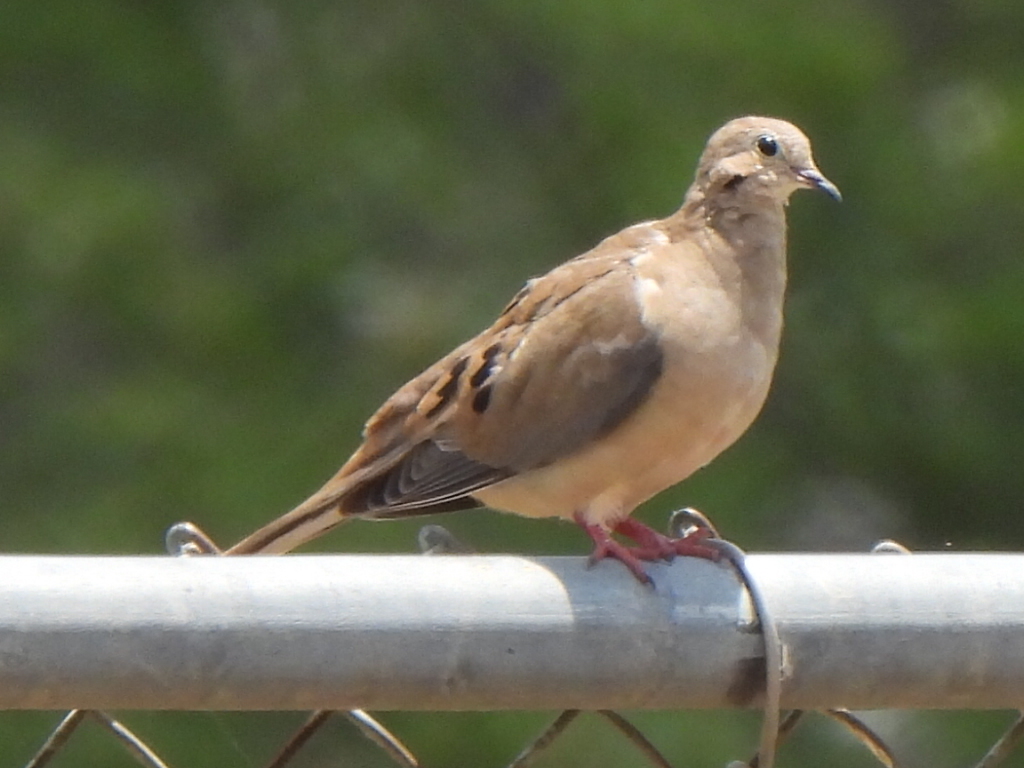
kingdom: Animalia
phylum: Chordata
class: Aves
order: Columbiformes
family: Columbidae
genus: Zenaida
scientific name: Zenaida macroura
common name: Mourning dove
